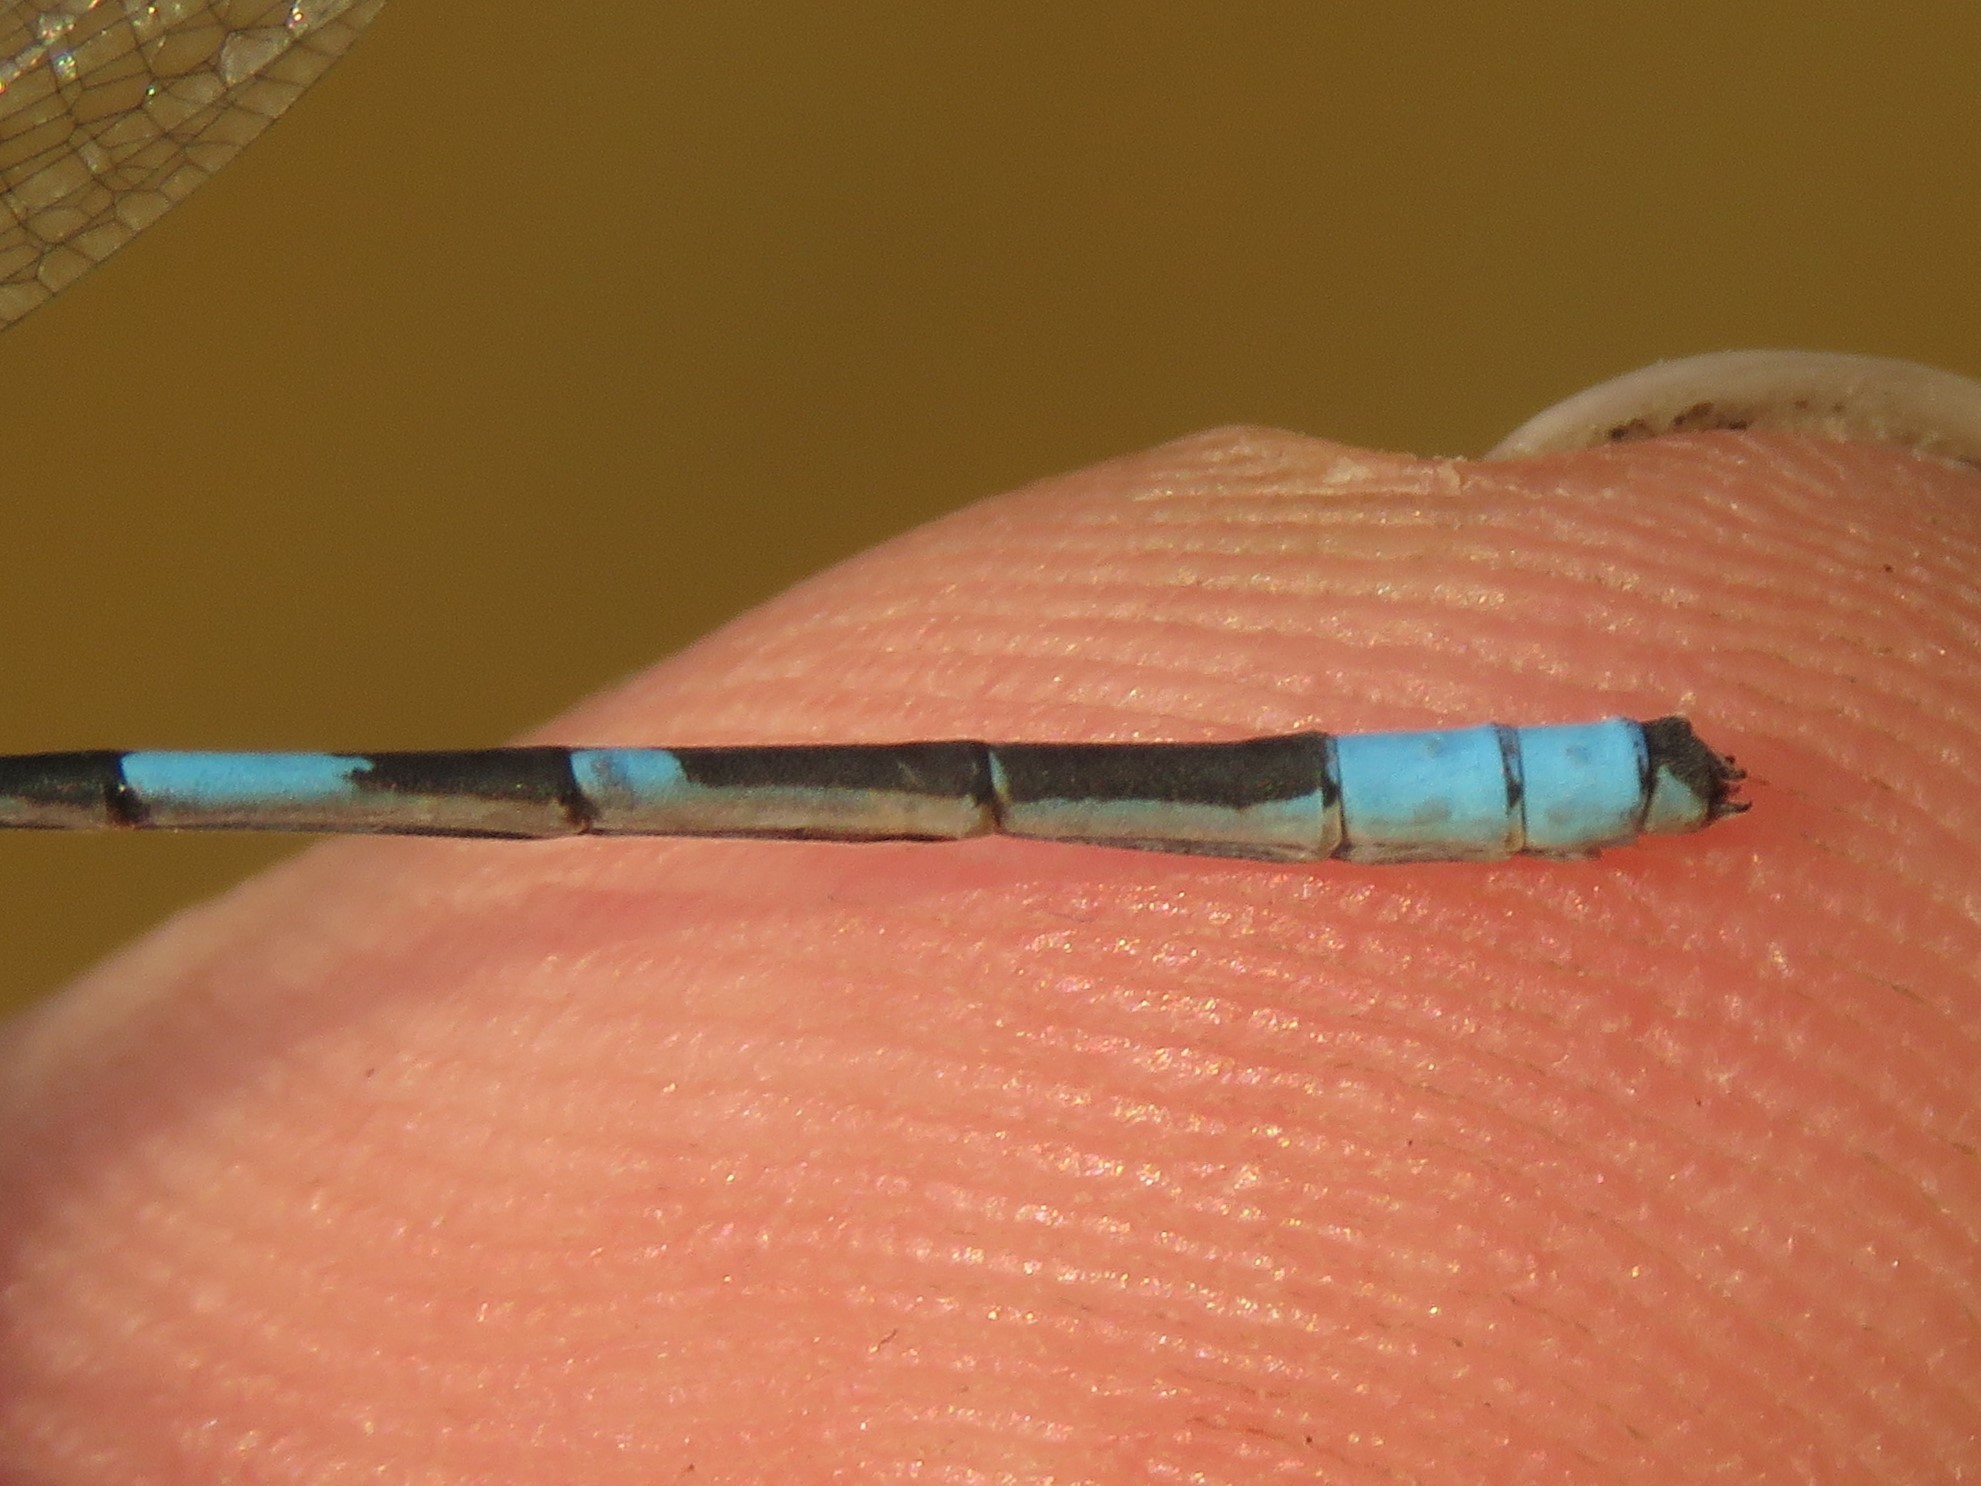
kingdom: Animalia
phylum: Arthropoda
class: Insecta
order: Odonata
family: Coenagrionidae
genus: Enallagma
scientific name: Enallagma hageni
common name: Hagen's bluet
